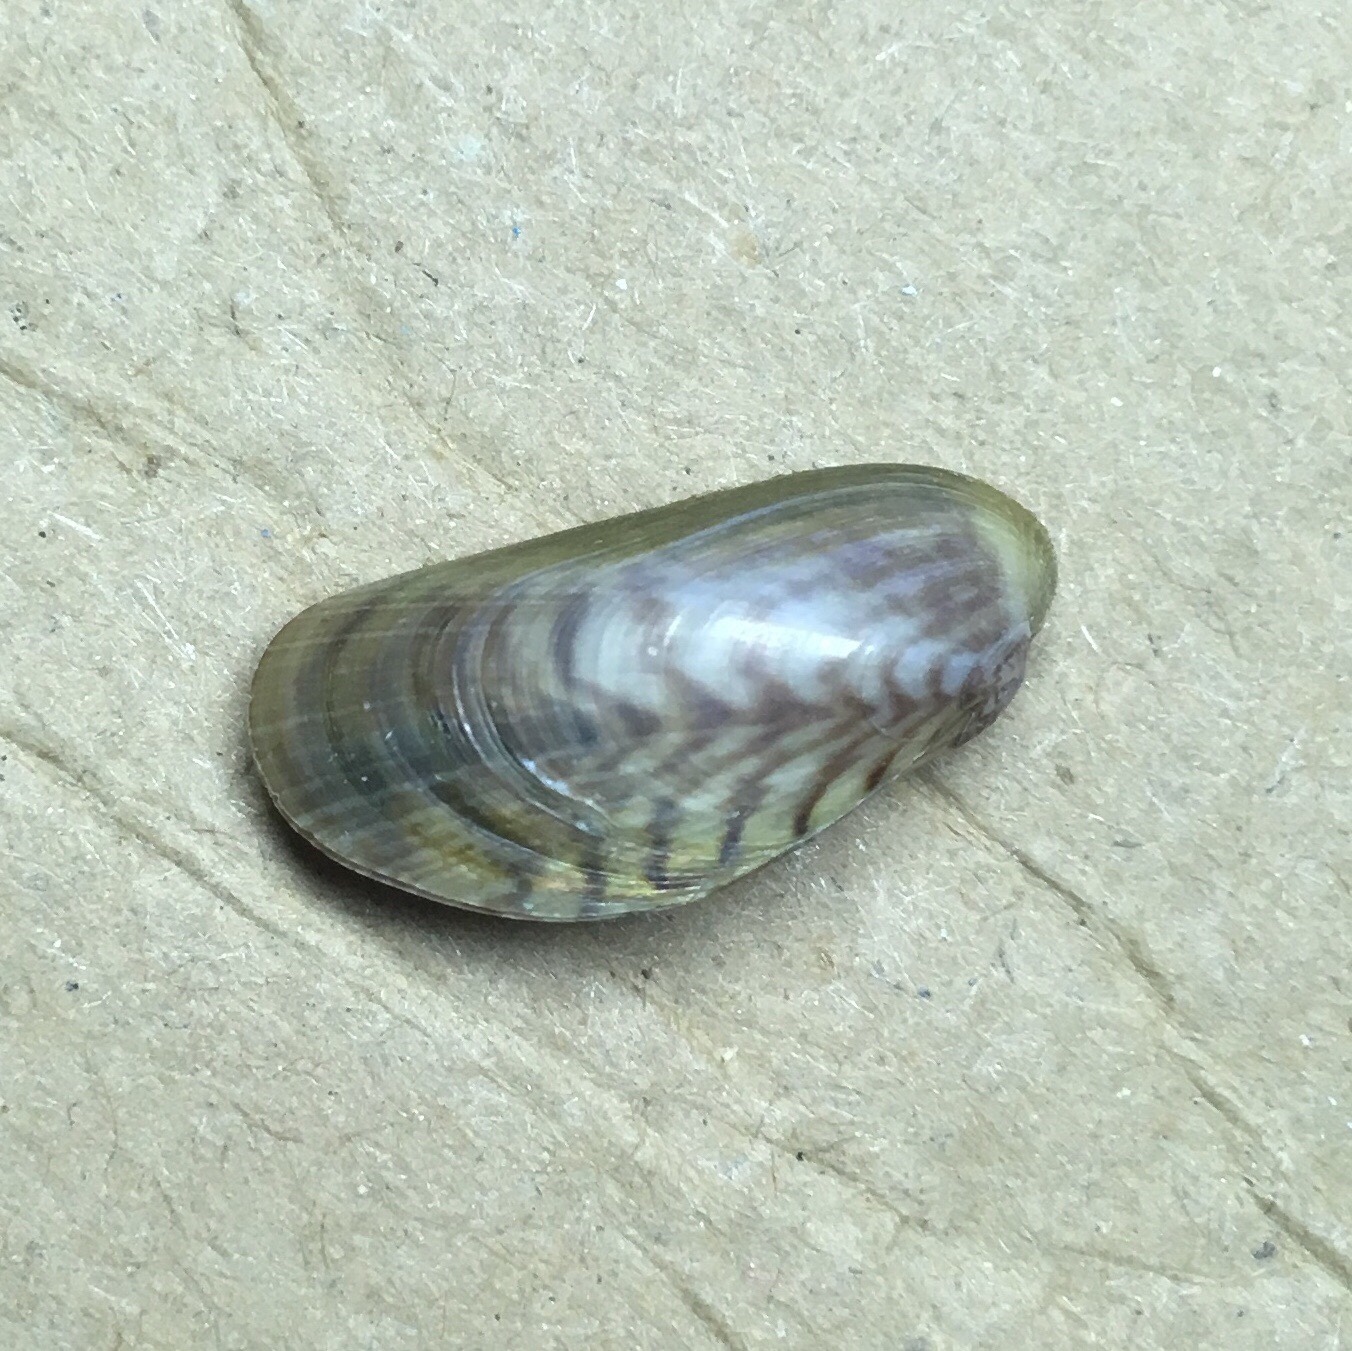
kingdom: Animalia
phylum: Mollusca
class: Bivalvia
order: Mytilida
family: Mytilidae
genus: Arcuatula
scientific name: Arcuatula senhousia
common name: Asian mussel
